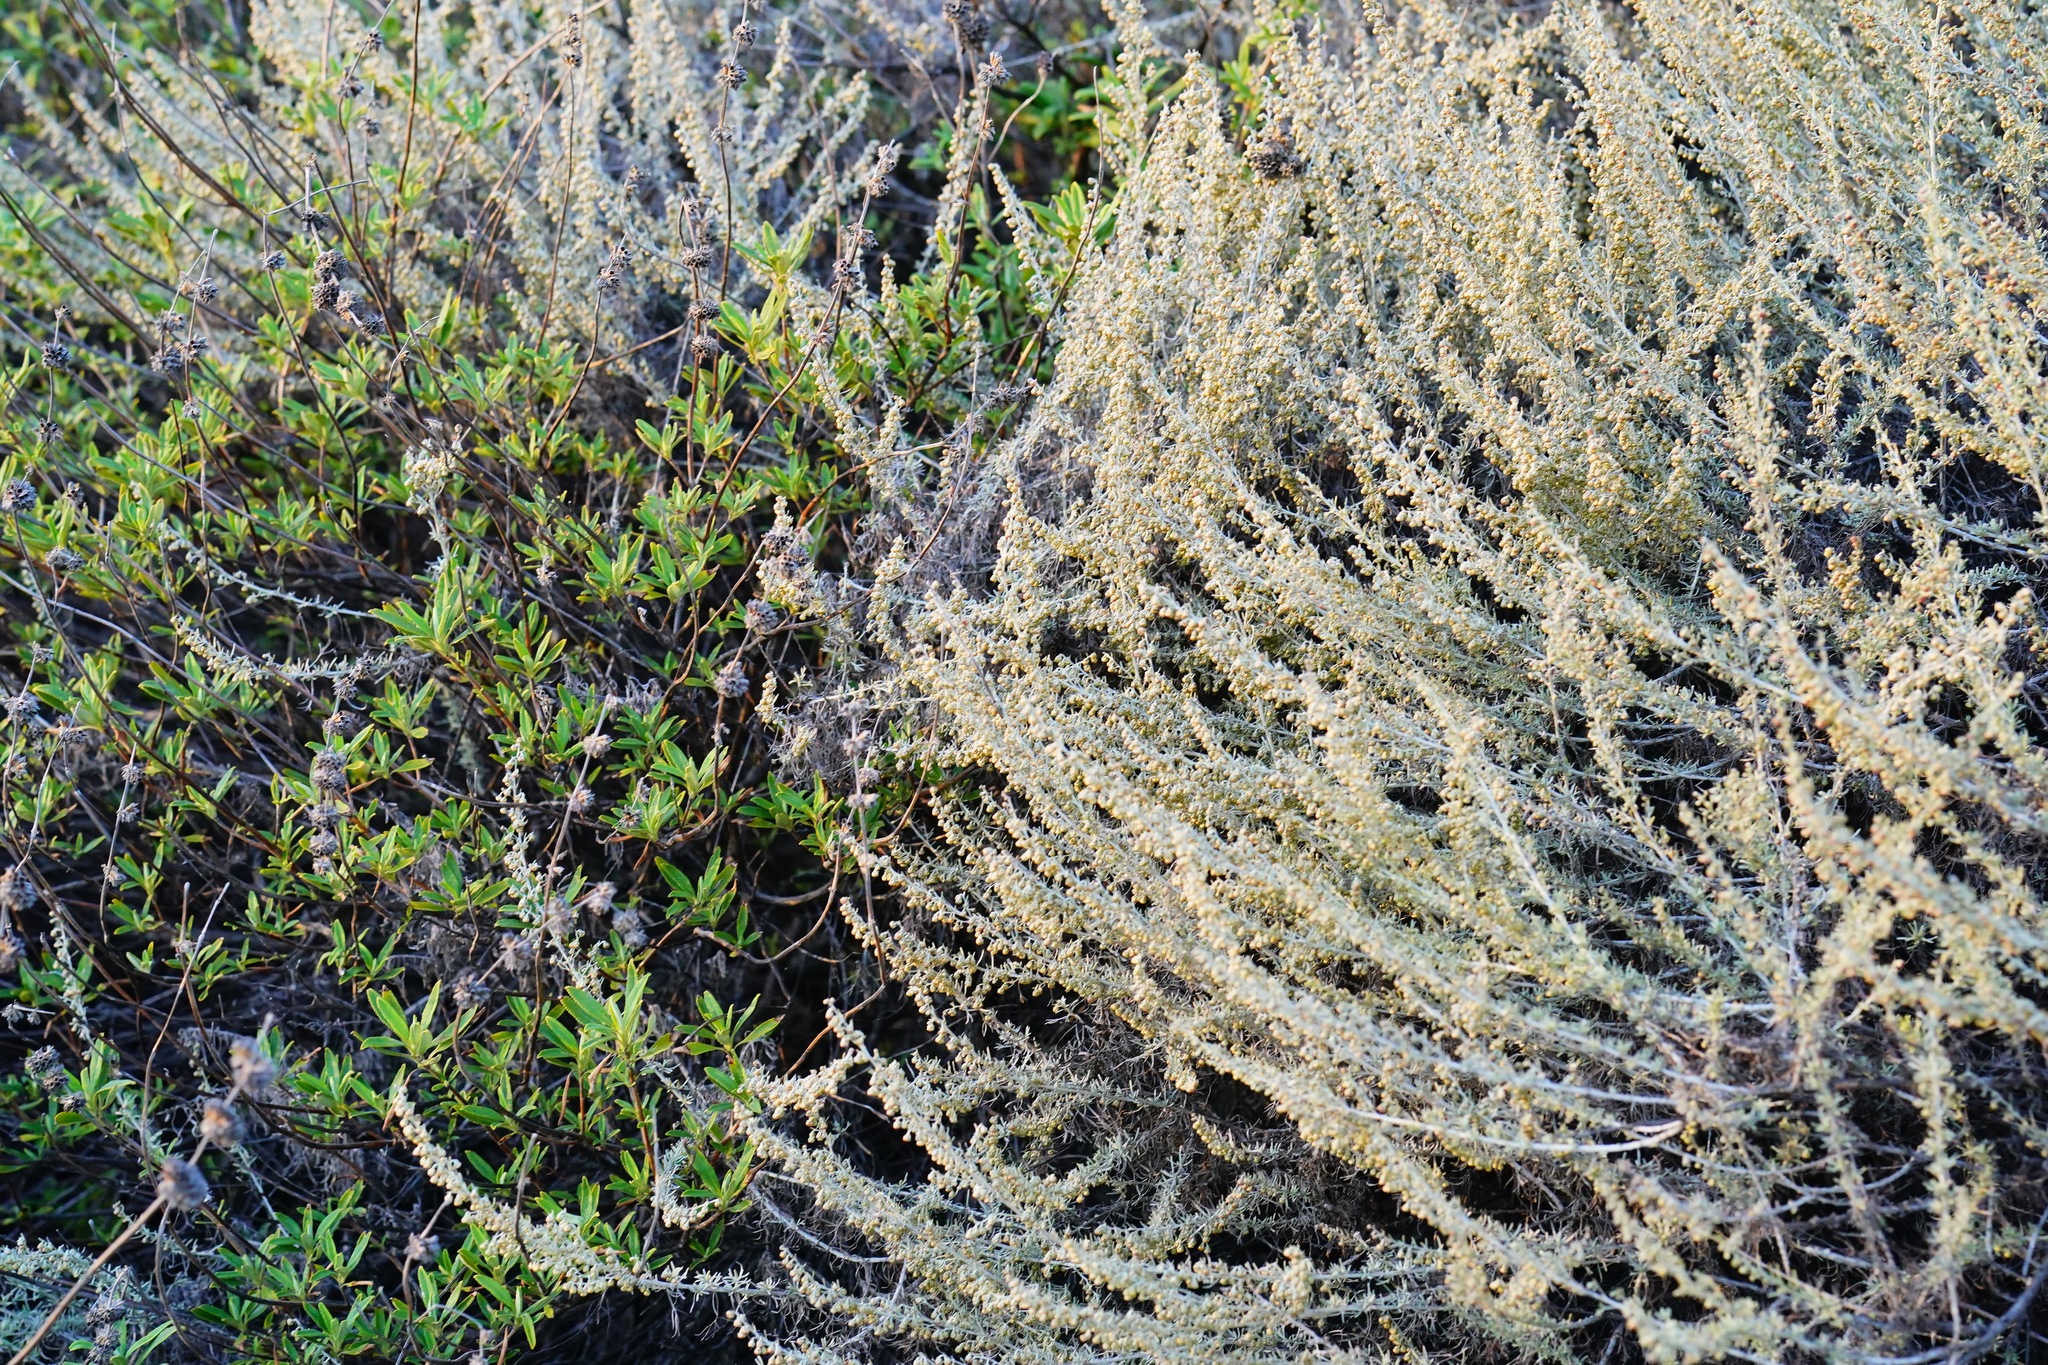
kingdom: Plantae
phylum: Tracheophyta
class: Magnoliopsida
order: Asterales
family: Asteraceae
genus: Artemisia
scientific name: Artemisia californica
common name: California sagebrush
